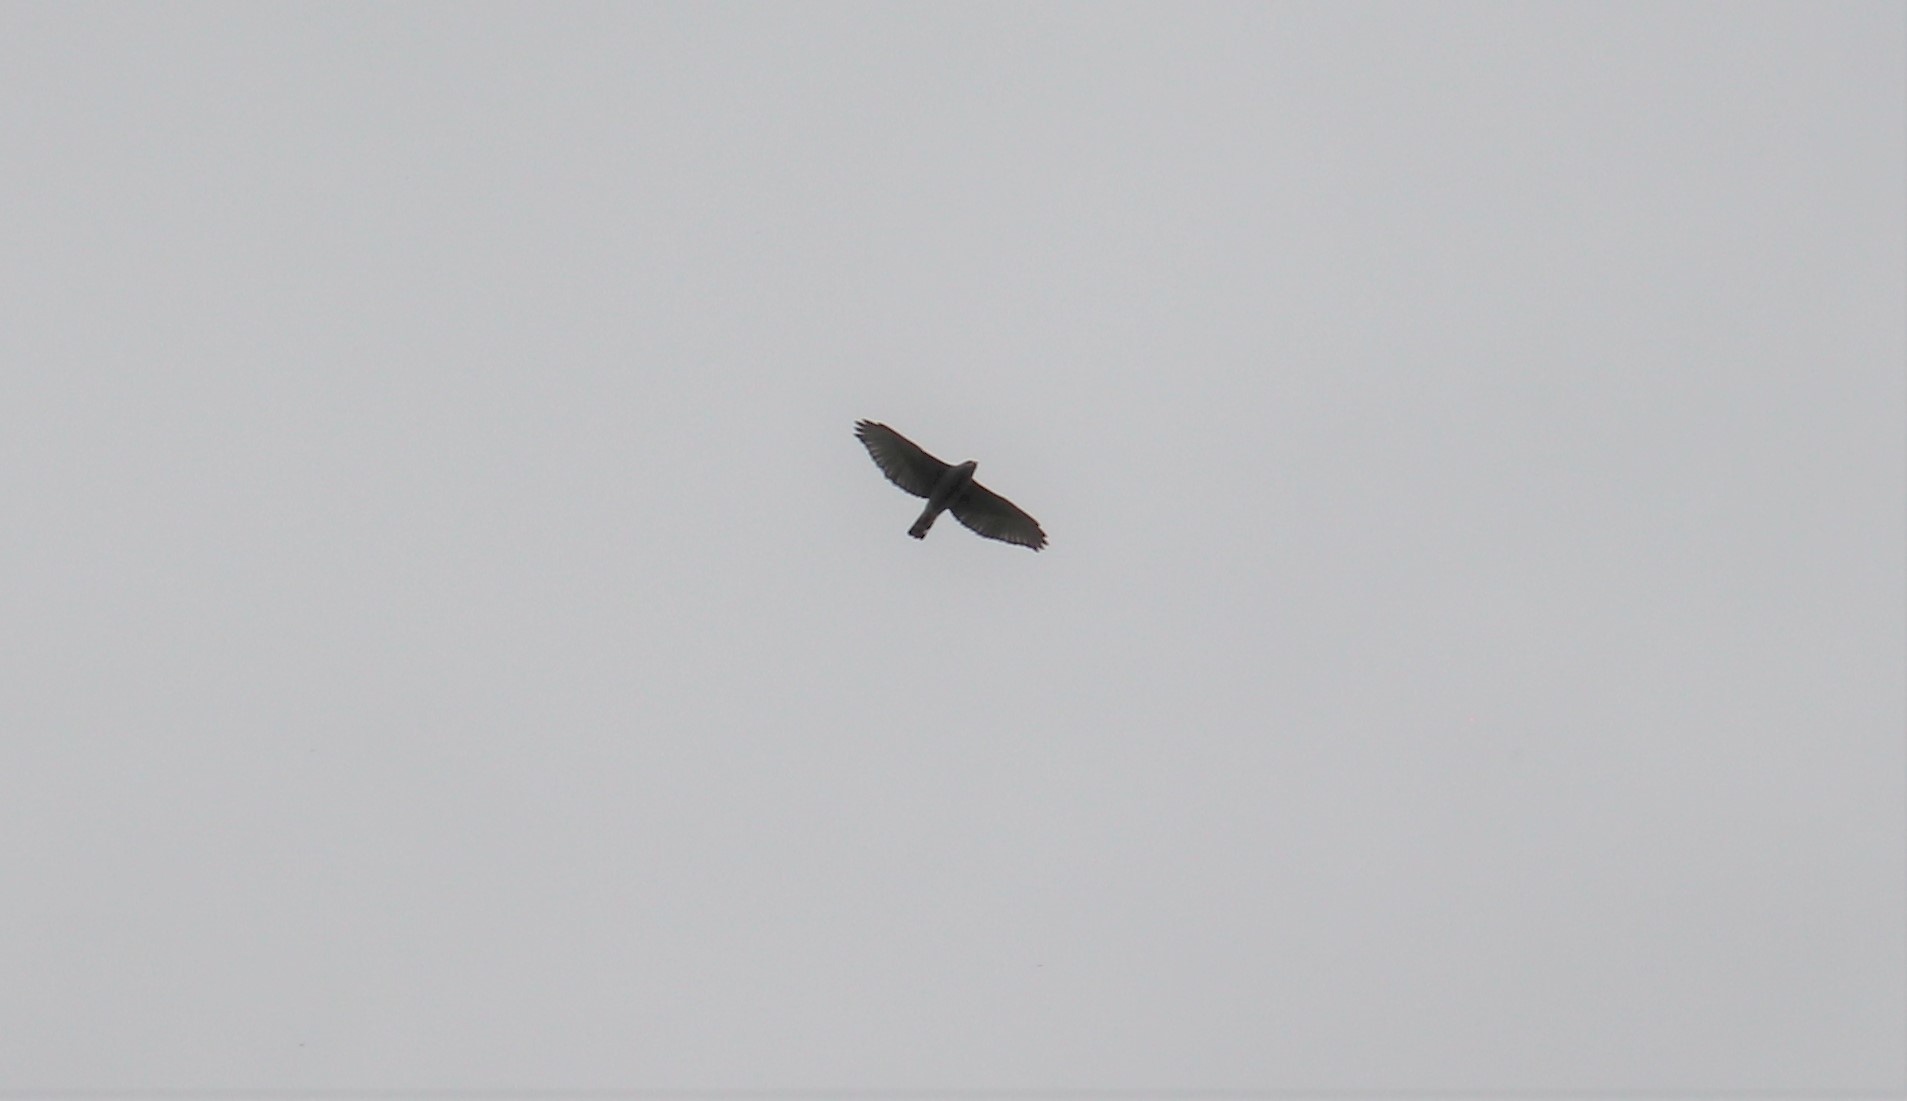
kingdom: Animalia
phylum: Chordata
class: Aves
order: Accipitriformes
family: Accipitridae
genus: Buteo
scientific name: Buteo nitidus
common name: Grey-lined hawk
